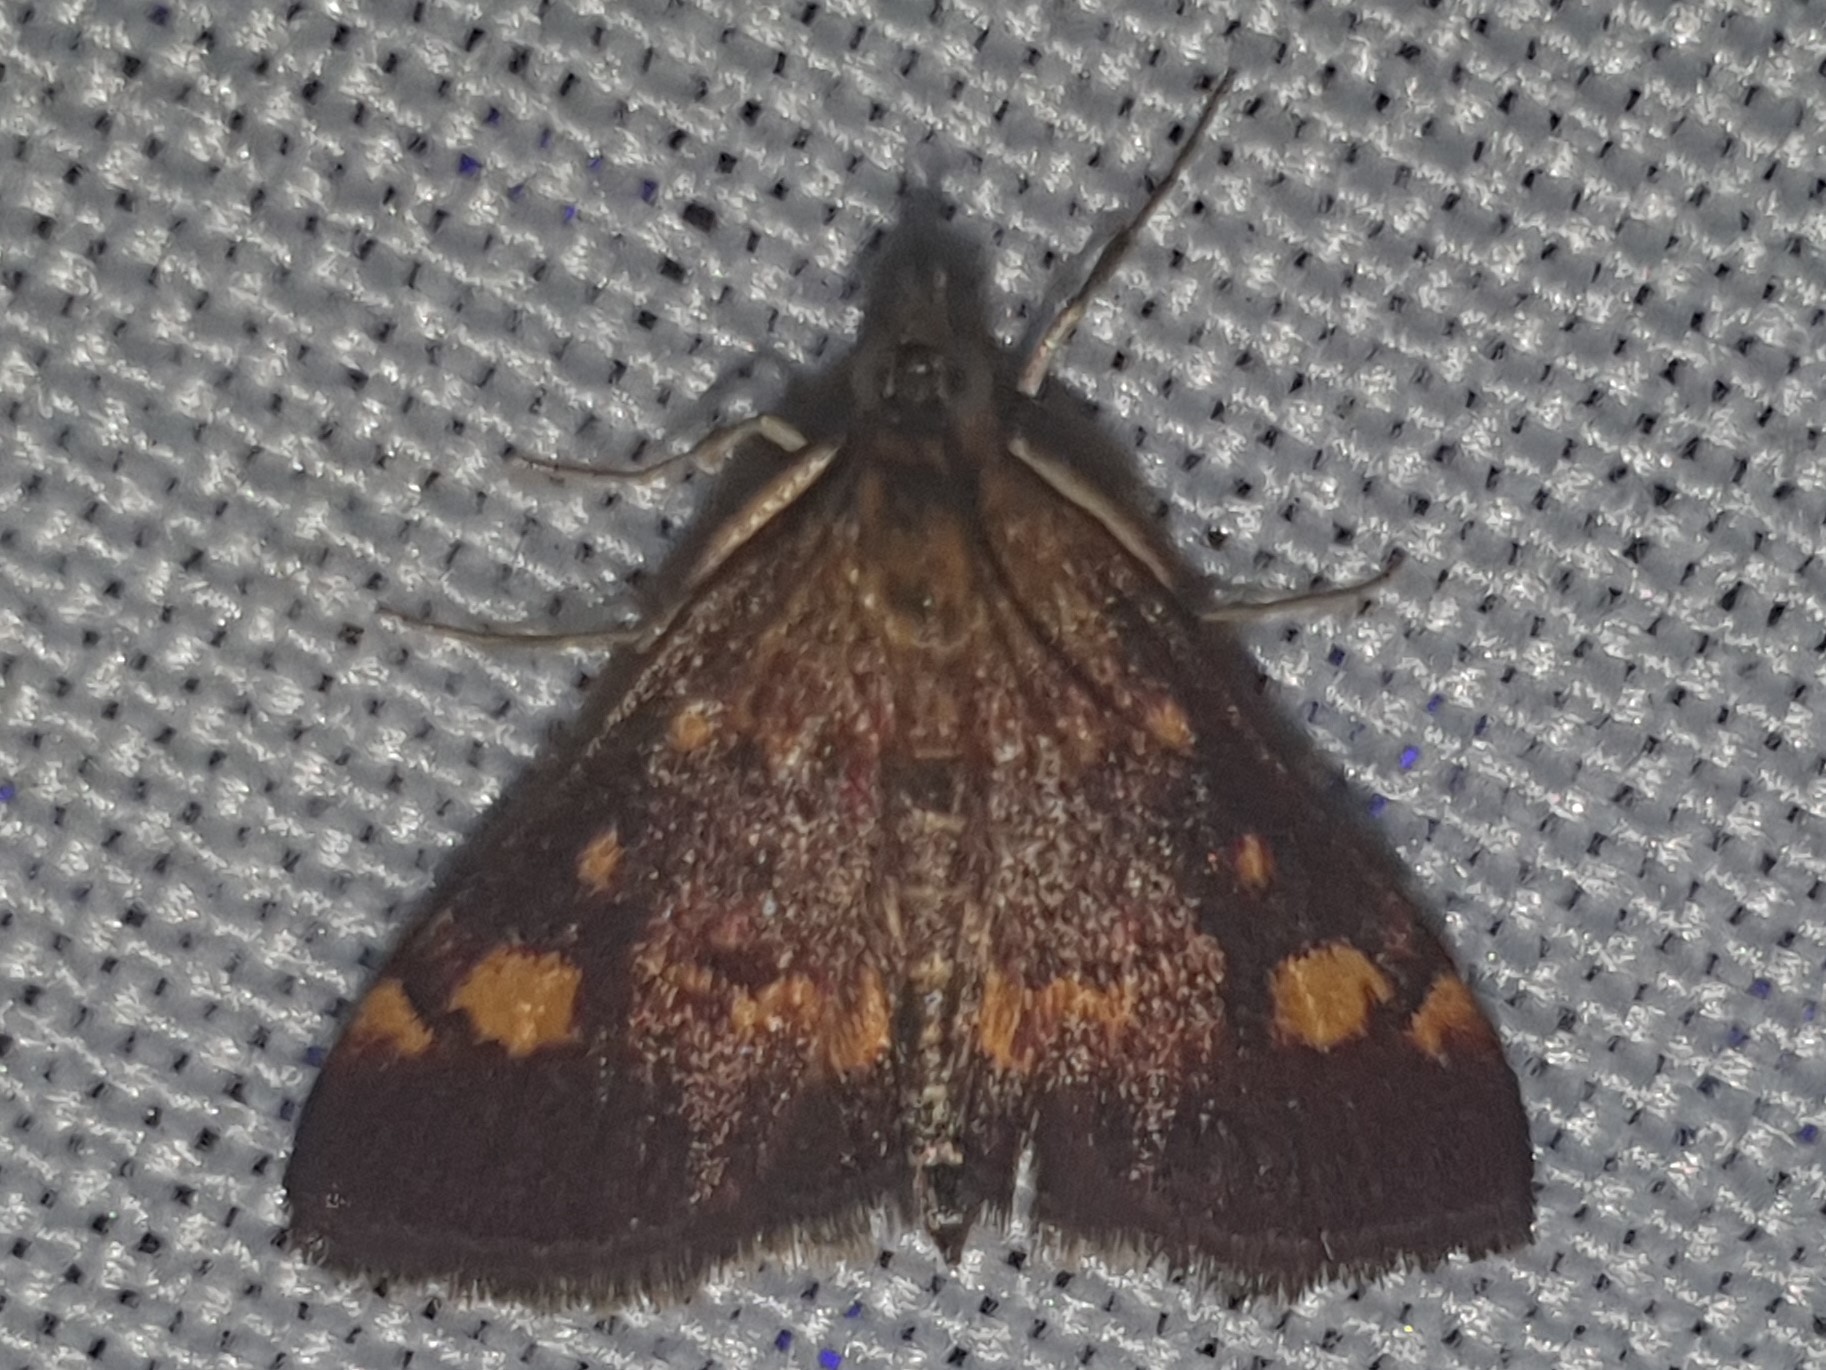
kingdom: Animalia
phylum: Arthropoda
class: Insecta
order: Lepidoptera
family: Crambidae
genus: Pyrausta
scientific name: Pyrausta aurata
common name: Small purple & gold
